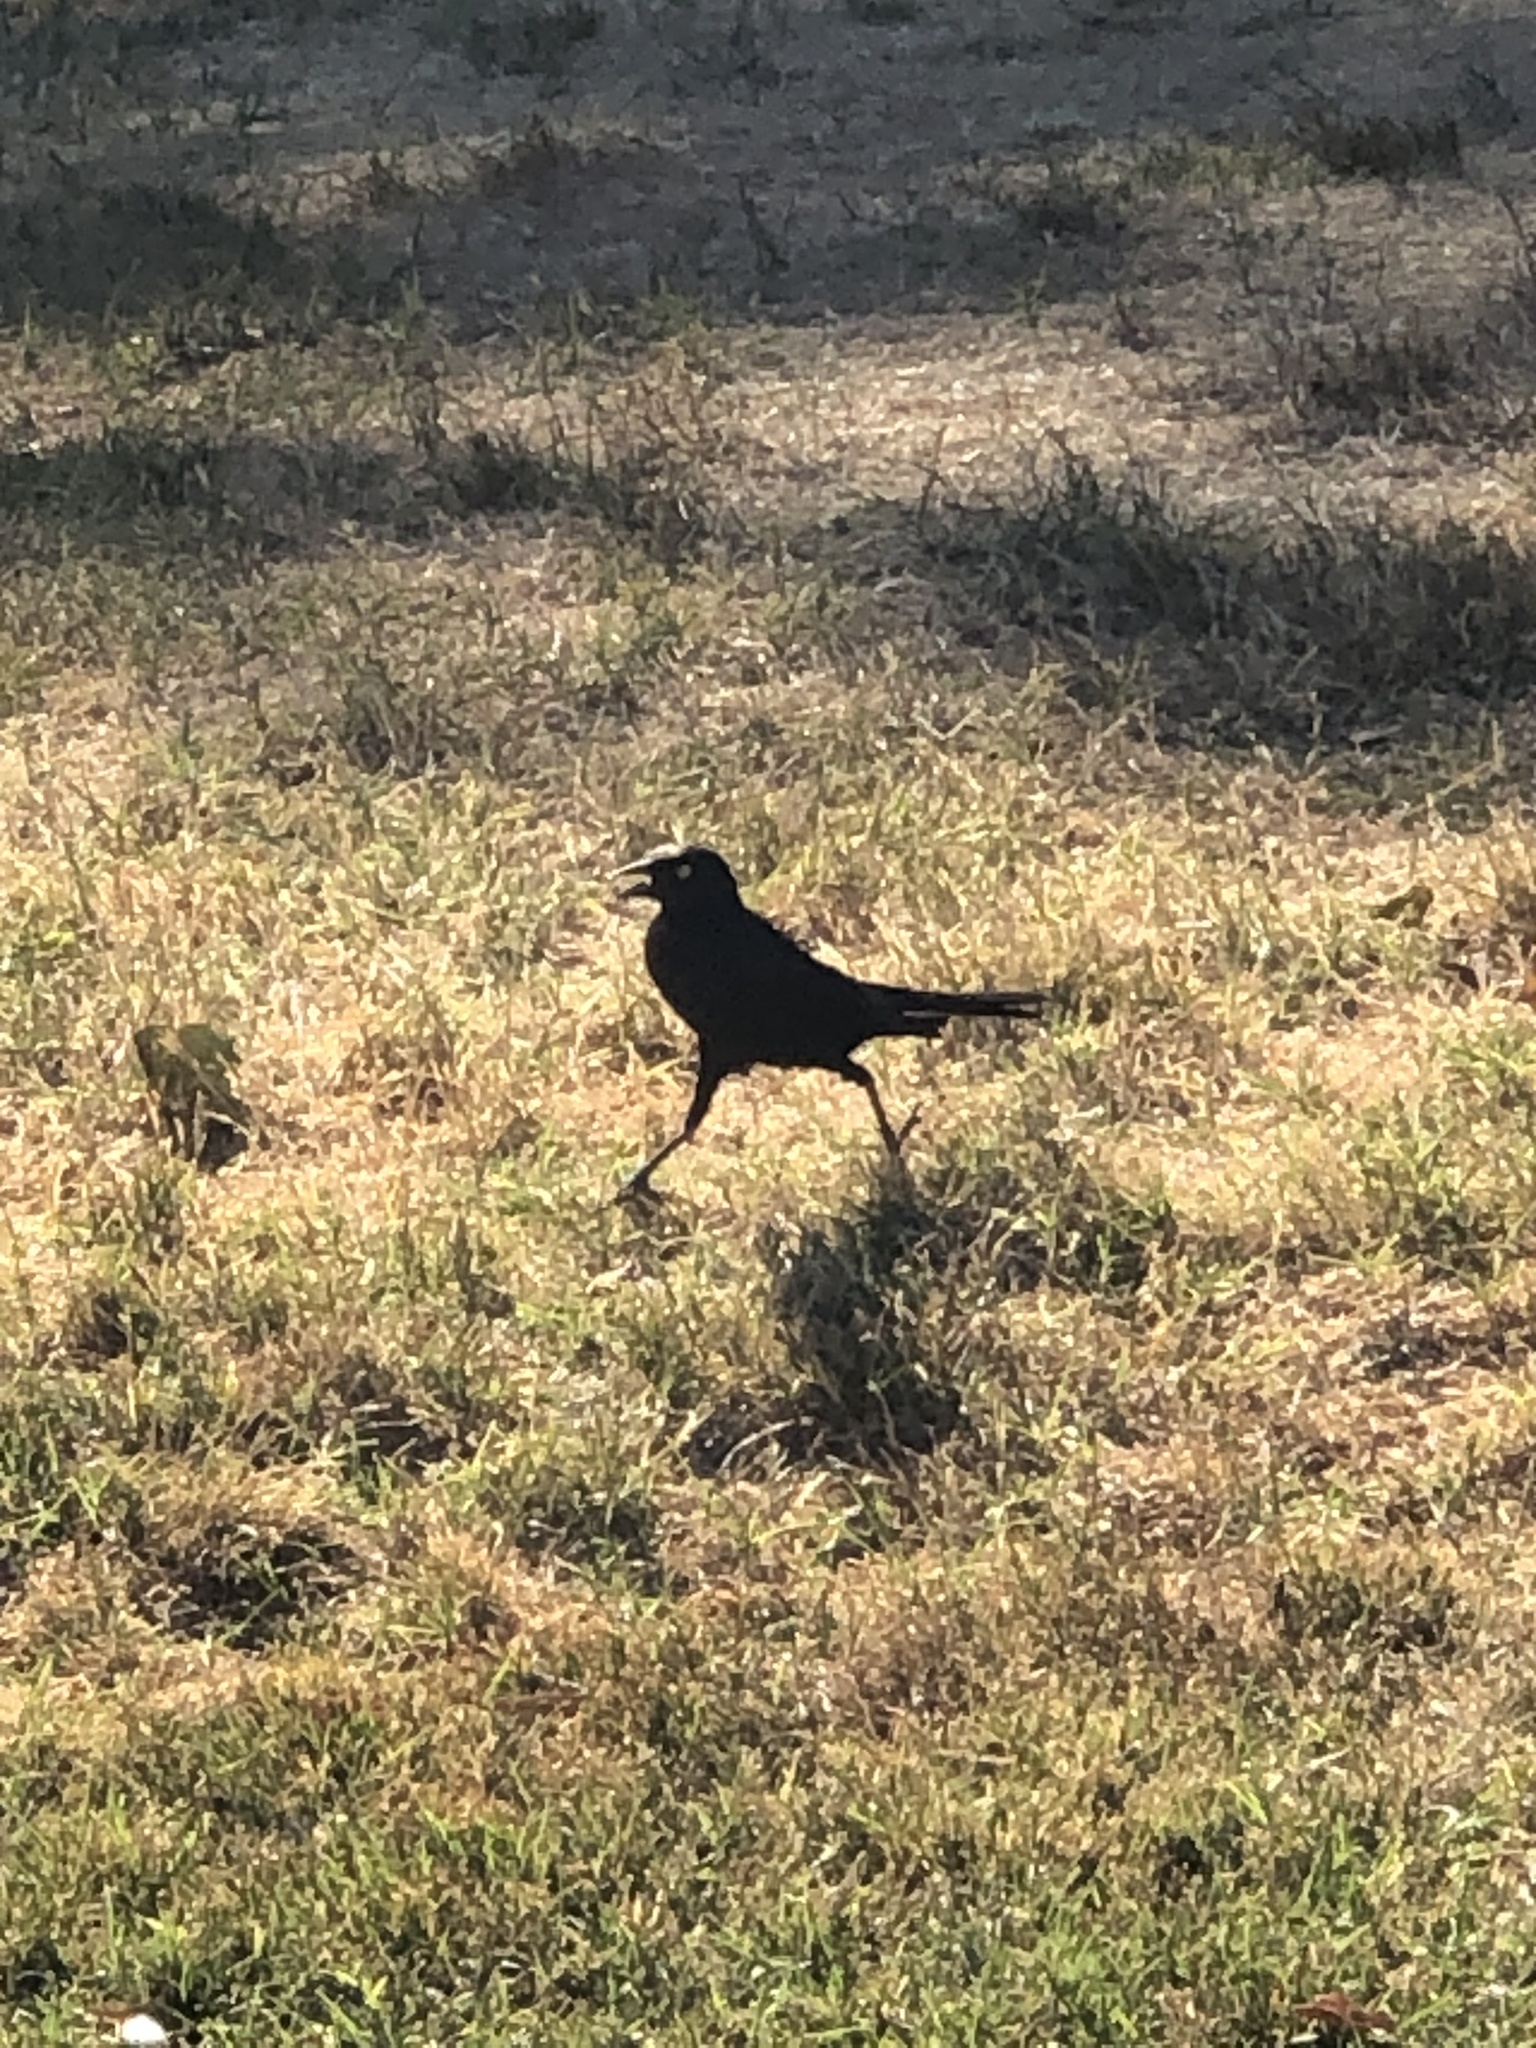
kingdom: Animalia
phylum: Chordata
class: Aves
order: Passeriformes
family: Icteridae
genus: Euphagus
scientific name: Euphagus cyanocephalus
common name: Brewer's blackbird
